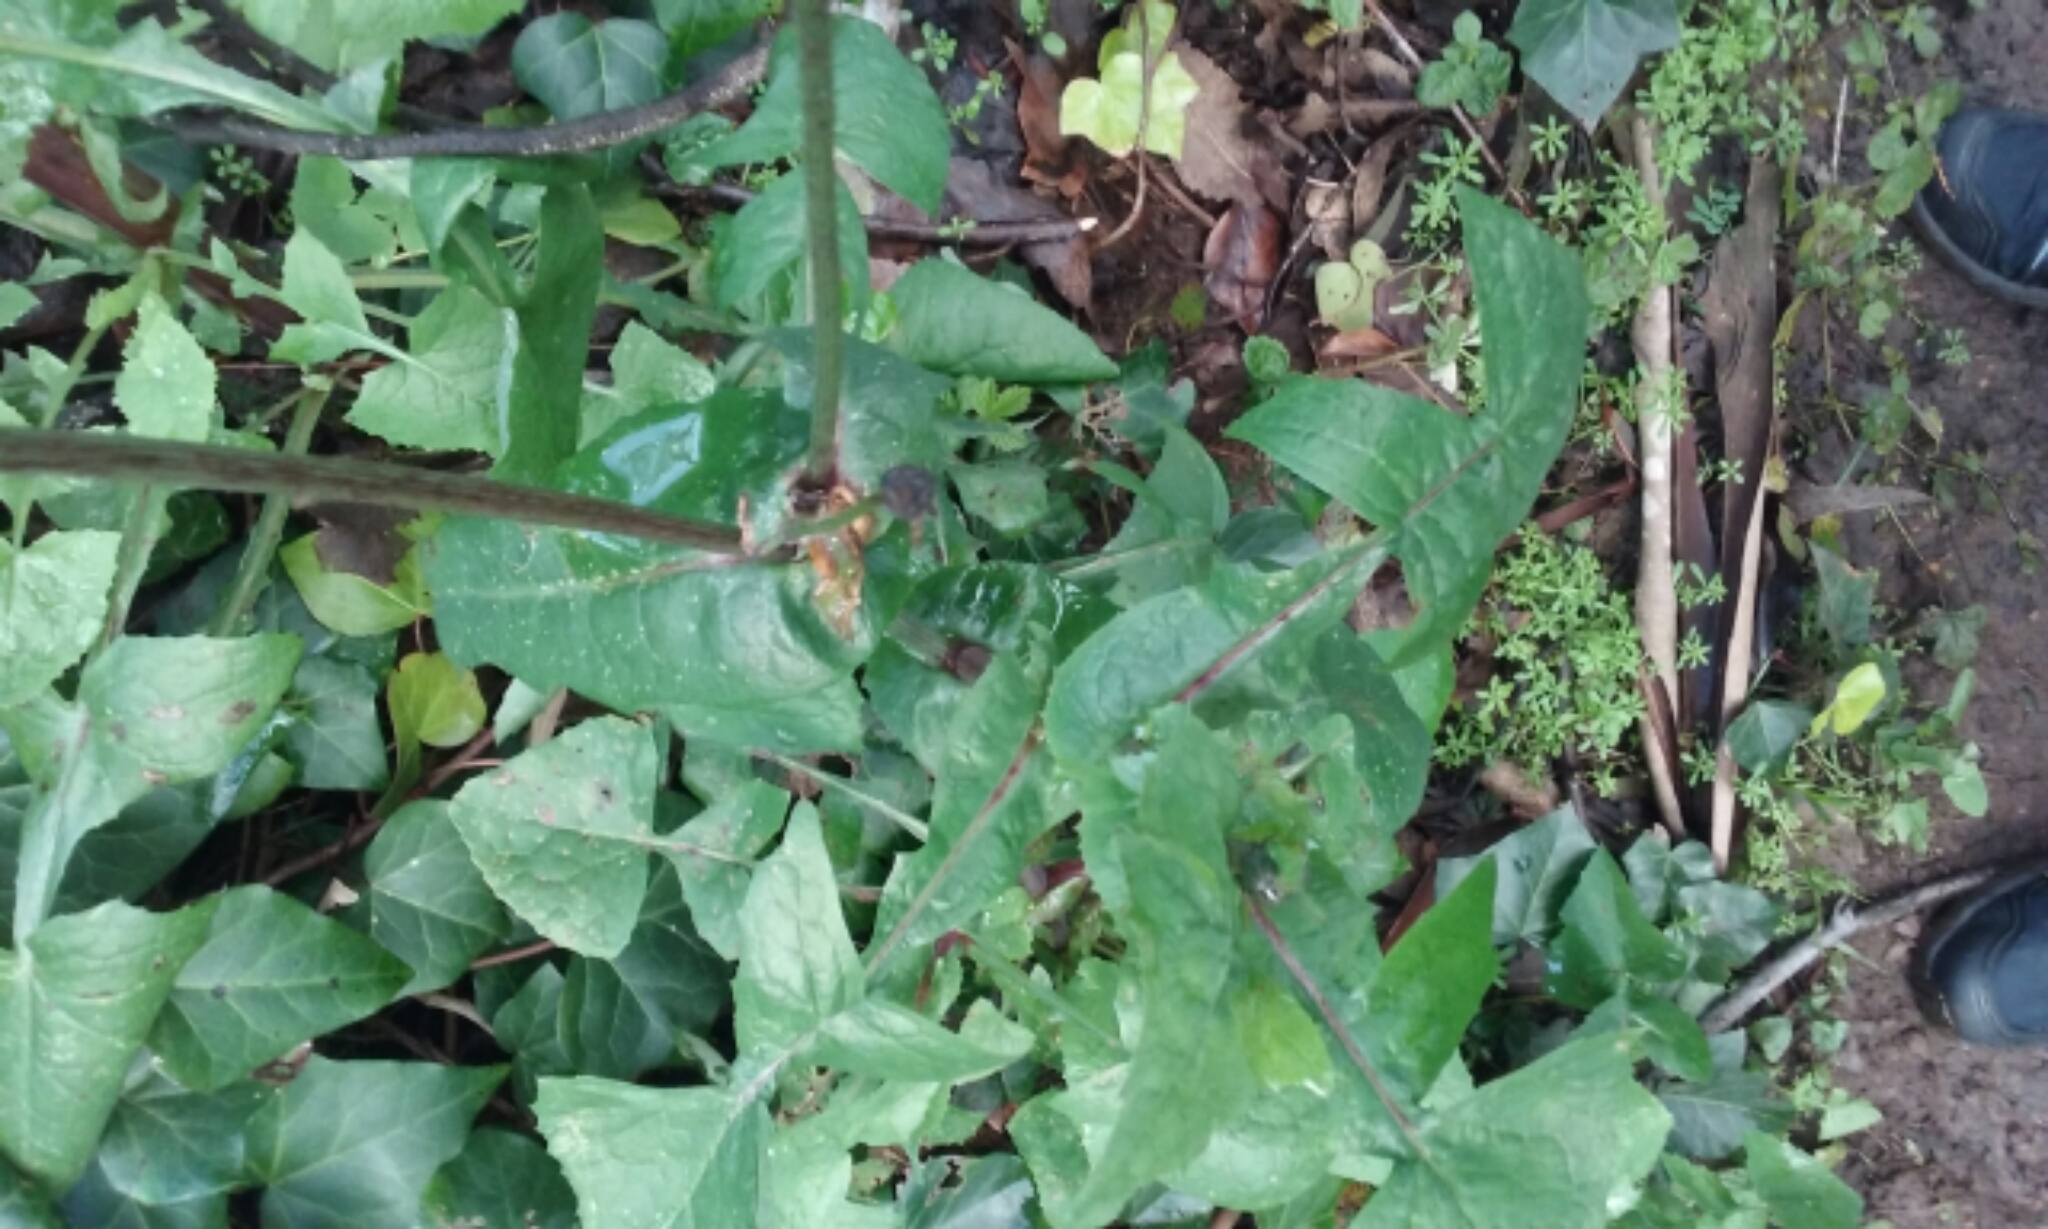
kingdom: Plantae
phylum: Tracheophyta
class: Magnoliopsida
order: Asterales
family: Asteraceae
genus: Sonchus
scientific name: Sonchus oleraceus
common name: Common sowthistle
